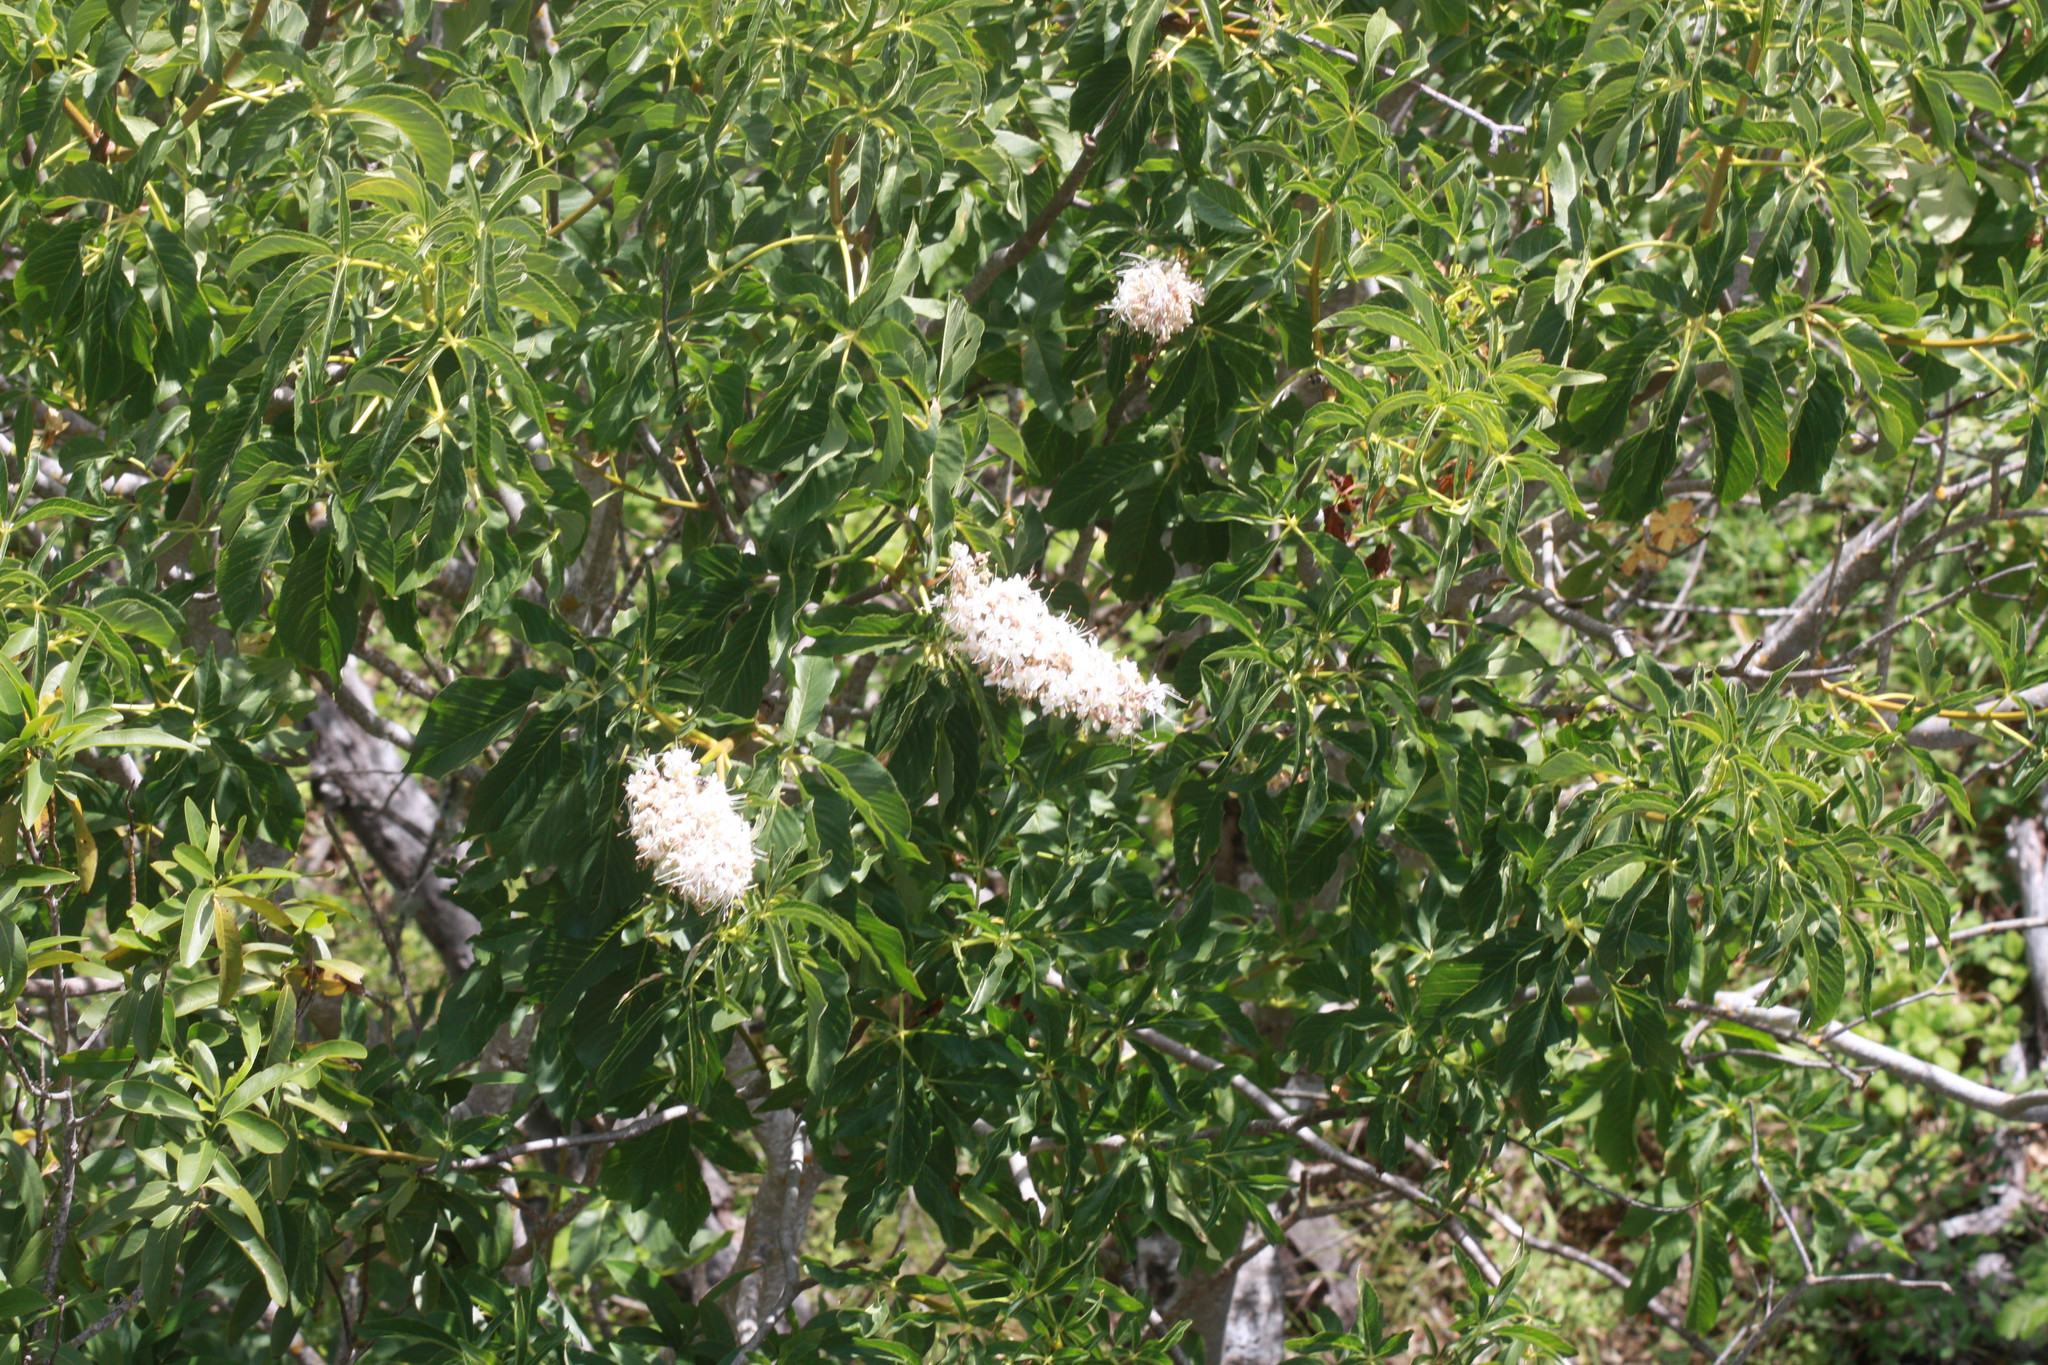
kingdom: Plantae
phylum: Tracheophyta
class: Magnoliopsida
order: Sapindales
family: Sapindaceae
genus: Aesculus
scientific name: Aesculus californica
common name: California buckeye
